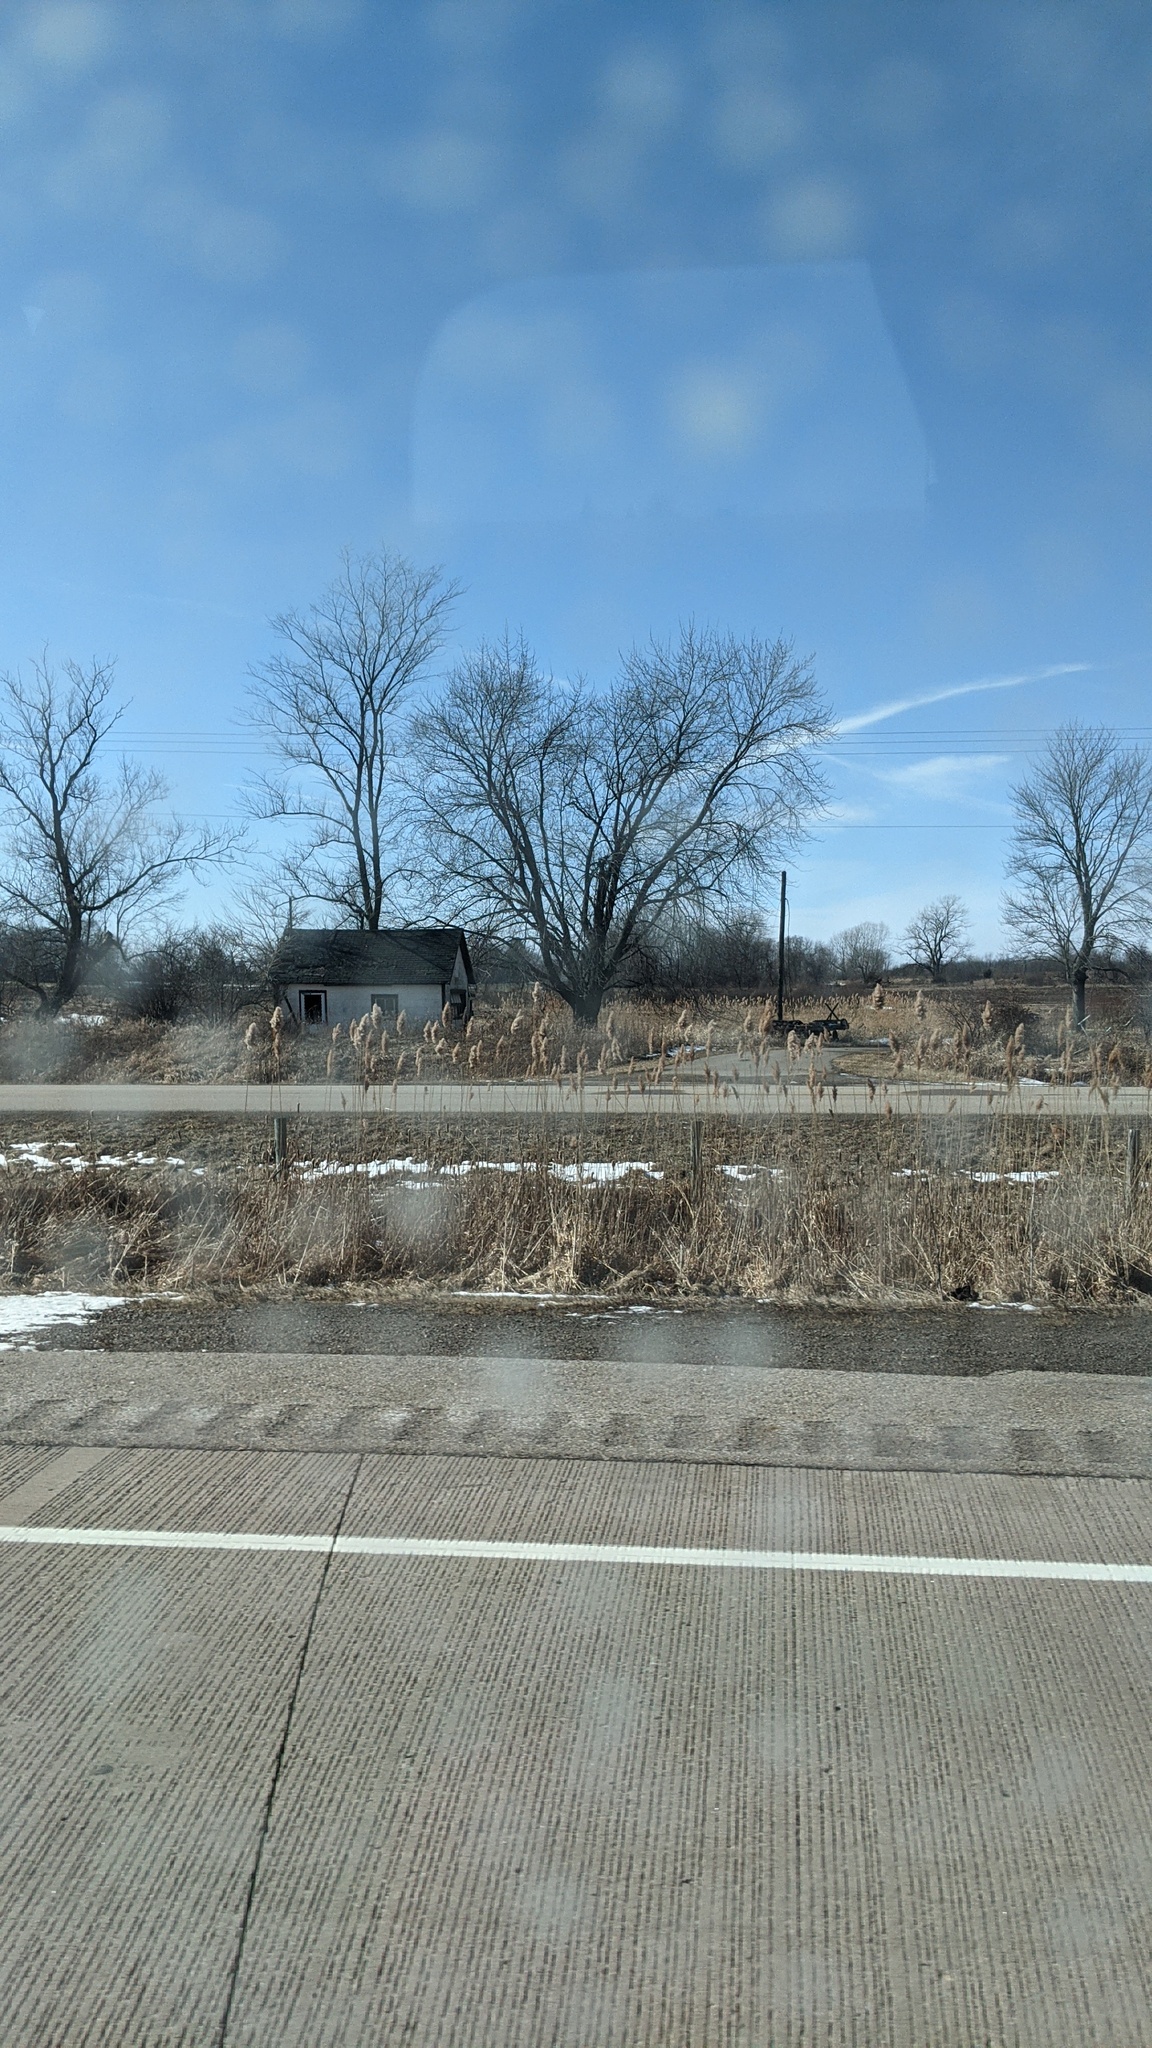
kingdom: Plantae
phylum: Tracheophyta
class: Liliopsida
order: Poales
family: Poaceae
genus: Phragmites
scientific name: Phragmites australis
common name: Common reed
